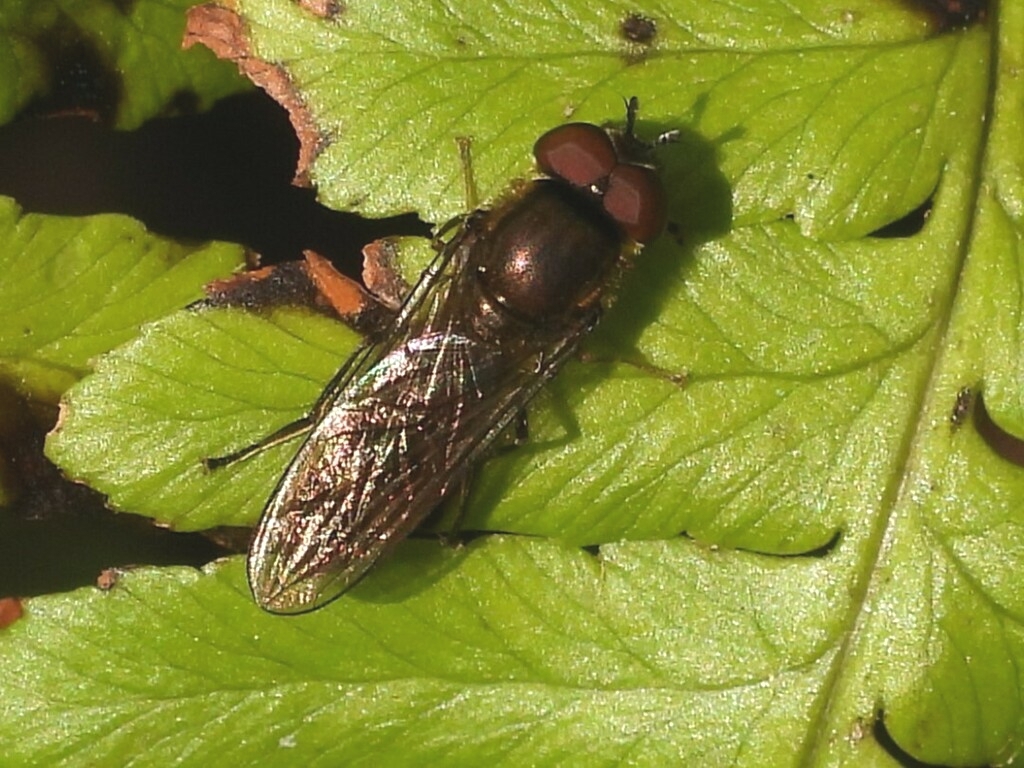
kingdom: Animalia
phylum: Arthropoda
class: Insecta
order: Diptera
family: Syrphidae
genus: Platycheirus
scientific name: Platycheirus albimanus
